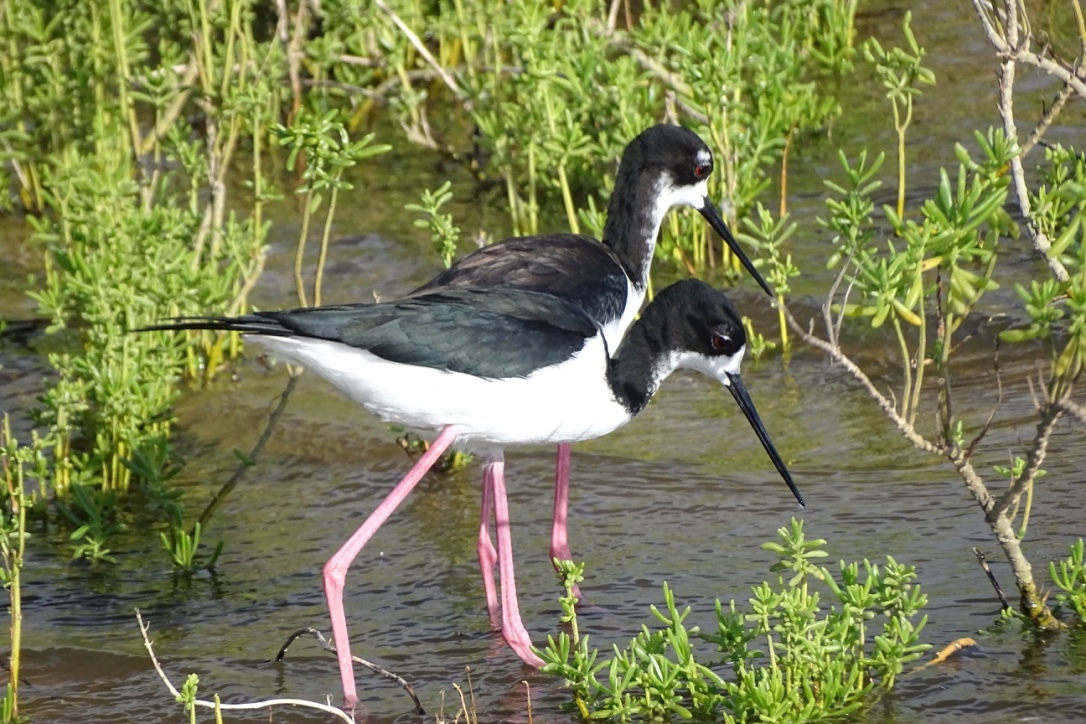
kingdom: Animalia
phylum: Chordata
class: Aves
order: Charadriiformes
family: Recurvirostridae
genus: Himantopus
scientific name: Himantopus mexicanus
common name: Black-necked stilt
